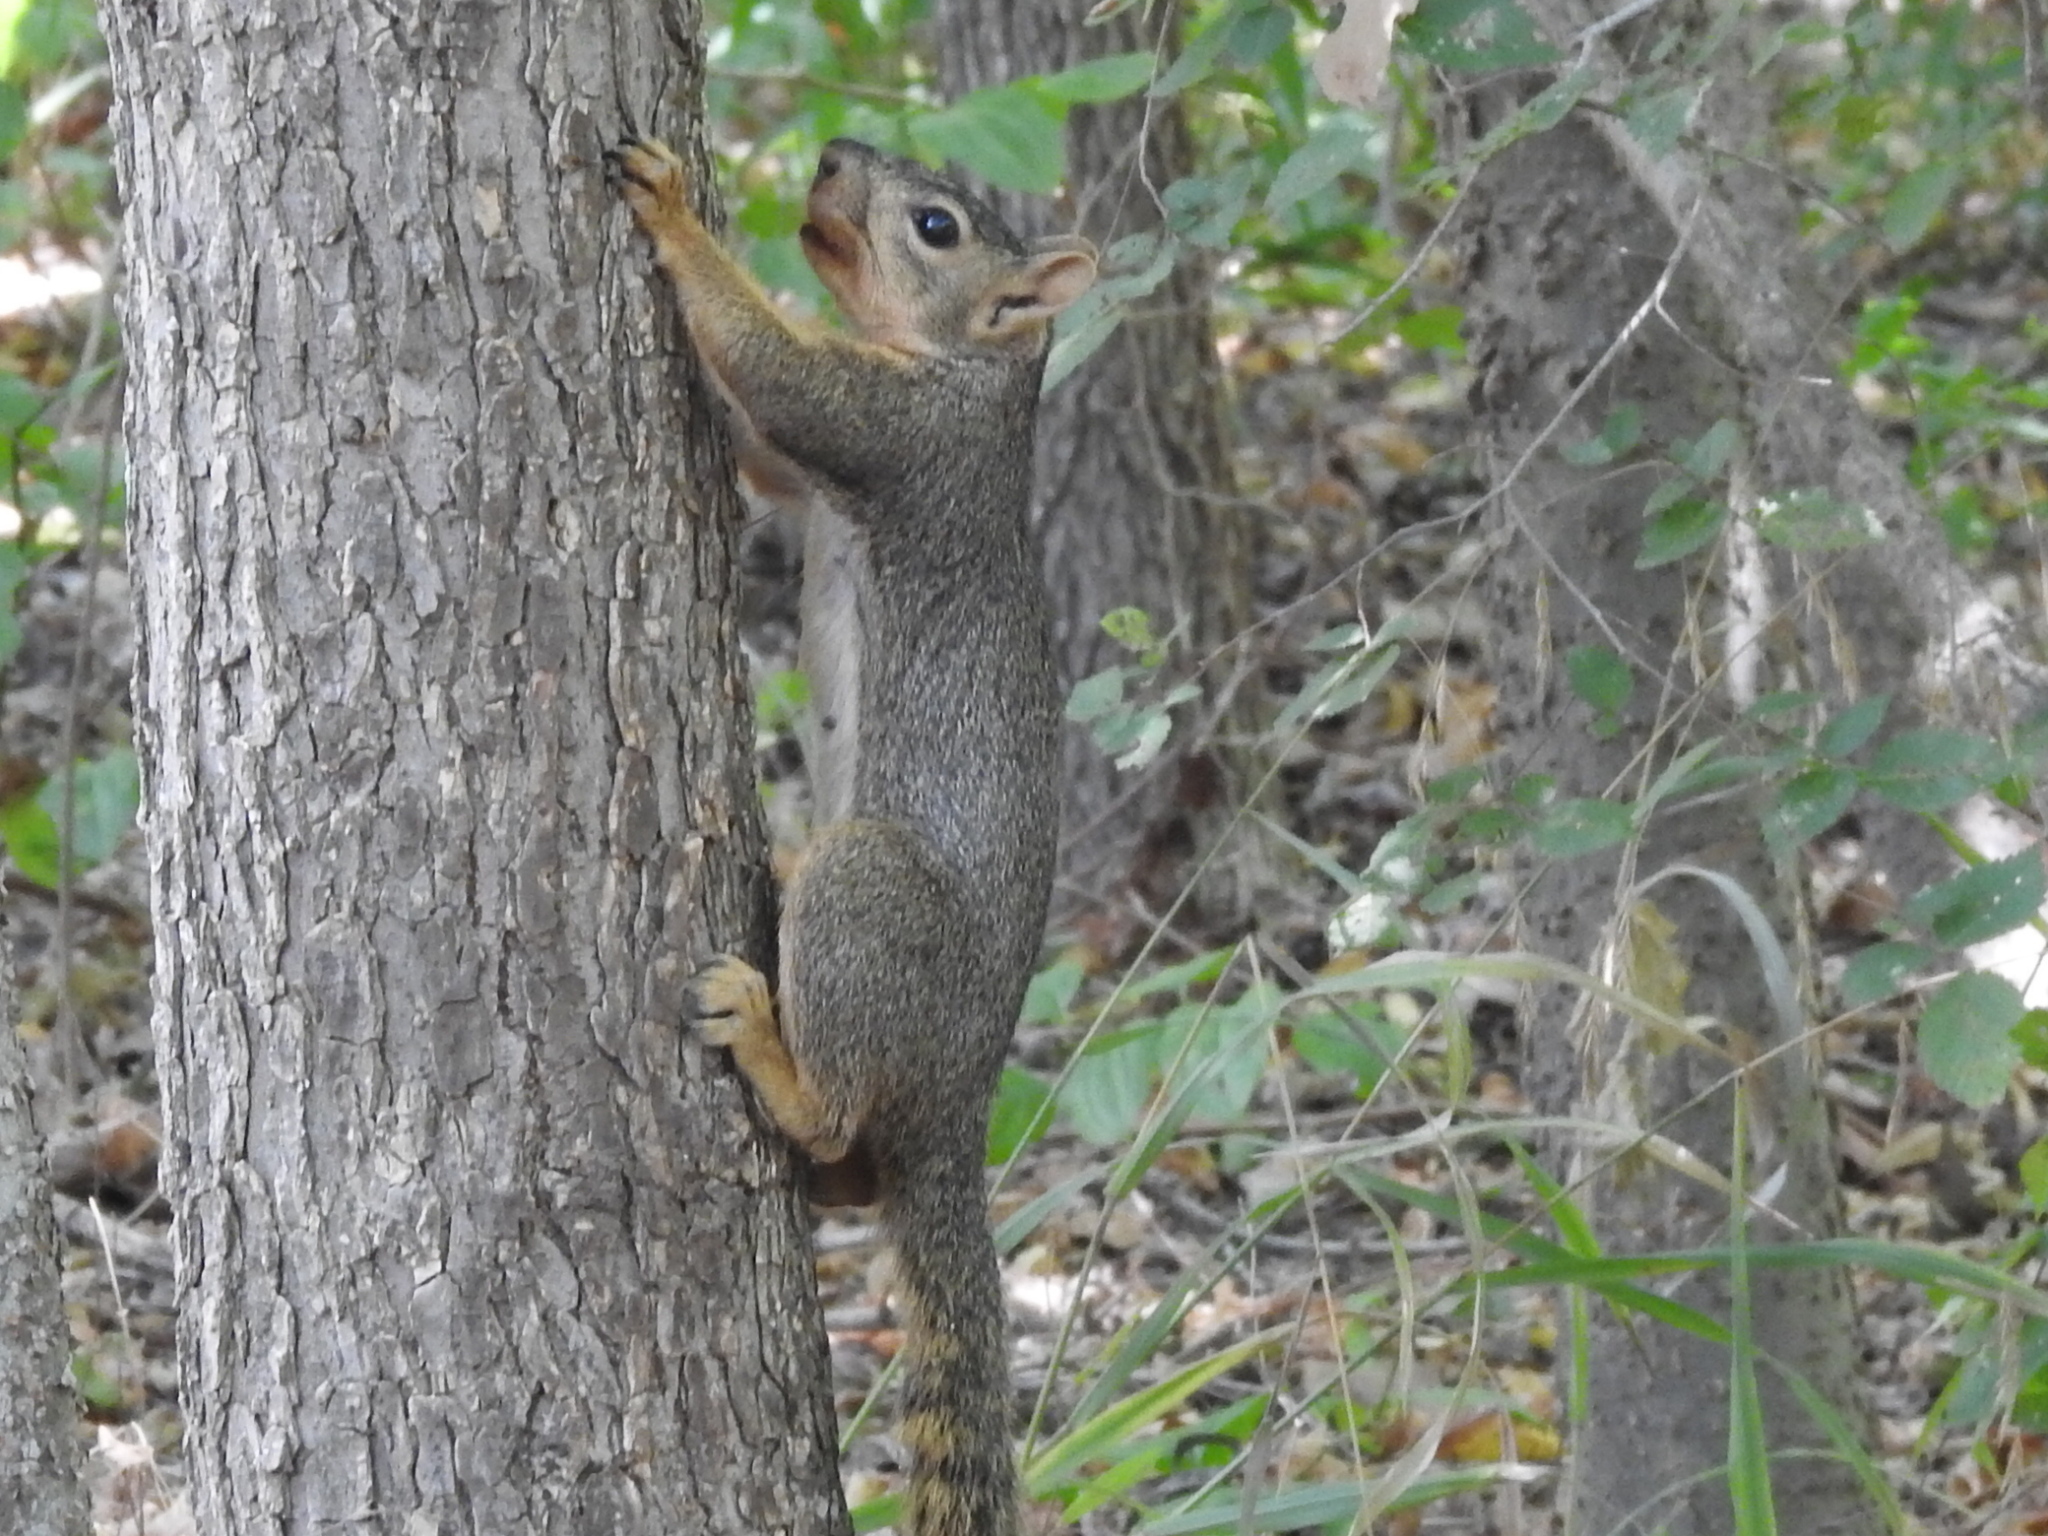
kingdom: Animalia
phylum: Chordata
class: Mammalia
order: Rodentia
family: Sciuridae
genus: Sciurus
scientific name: Sciurus niger
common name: Fox squirrel
